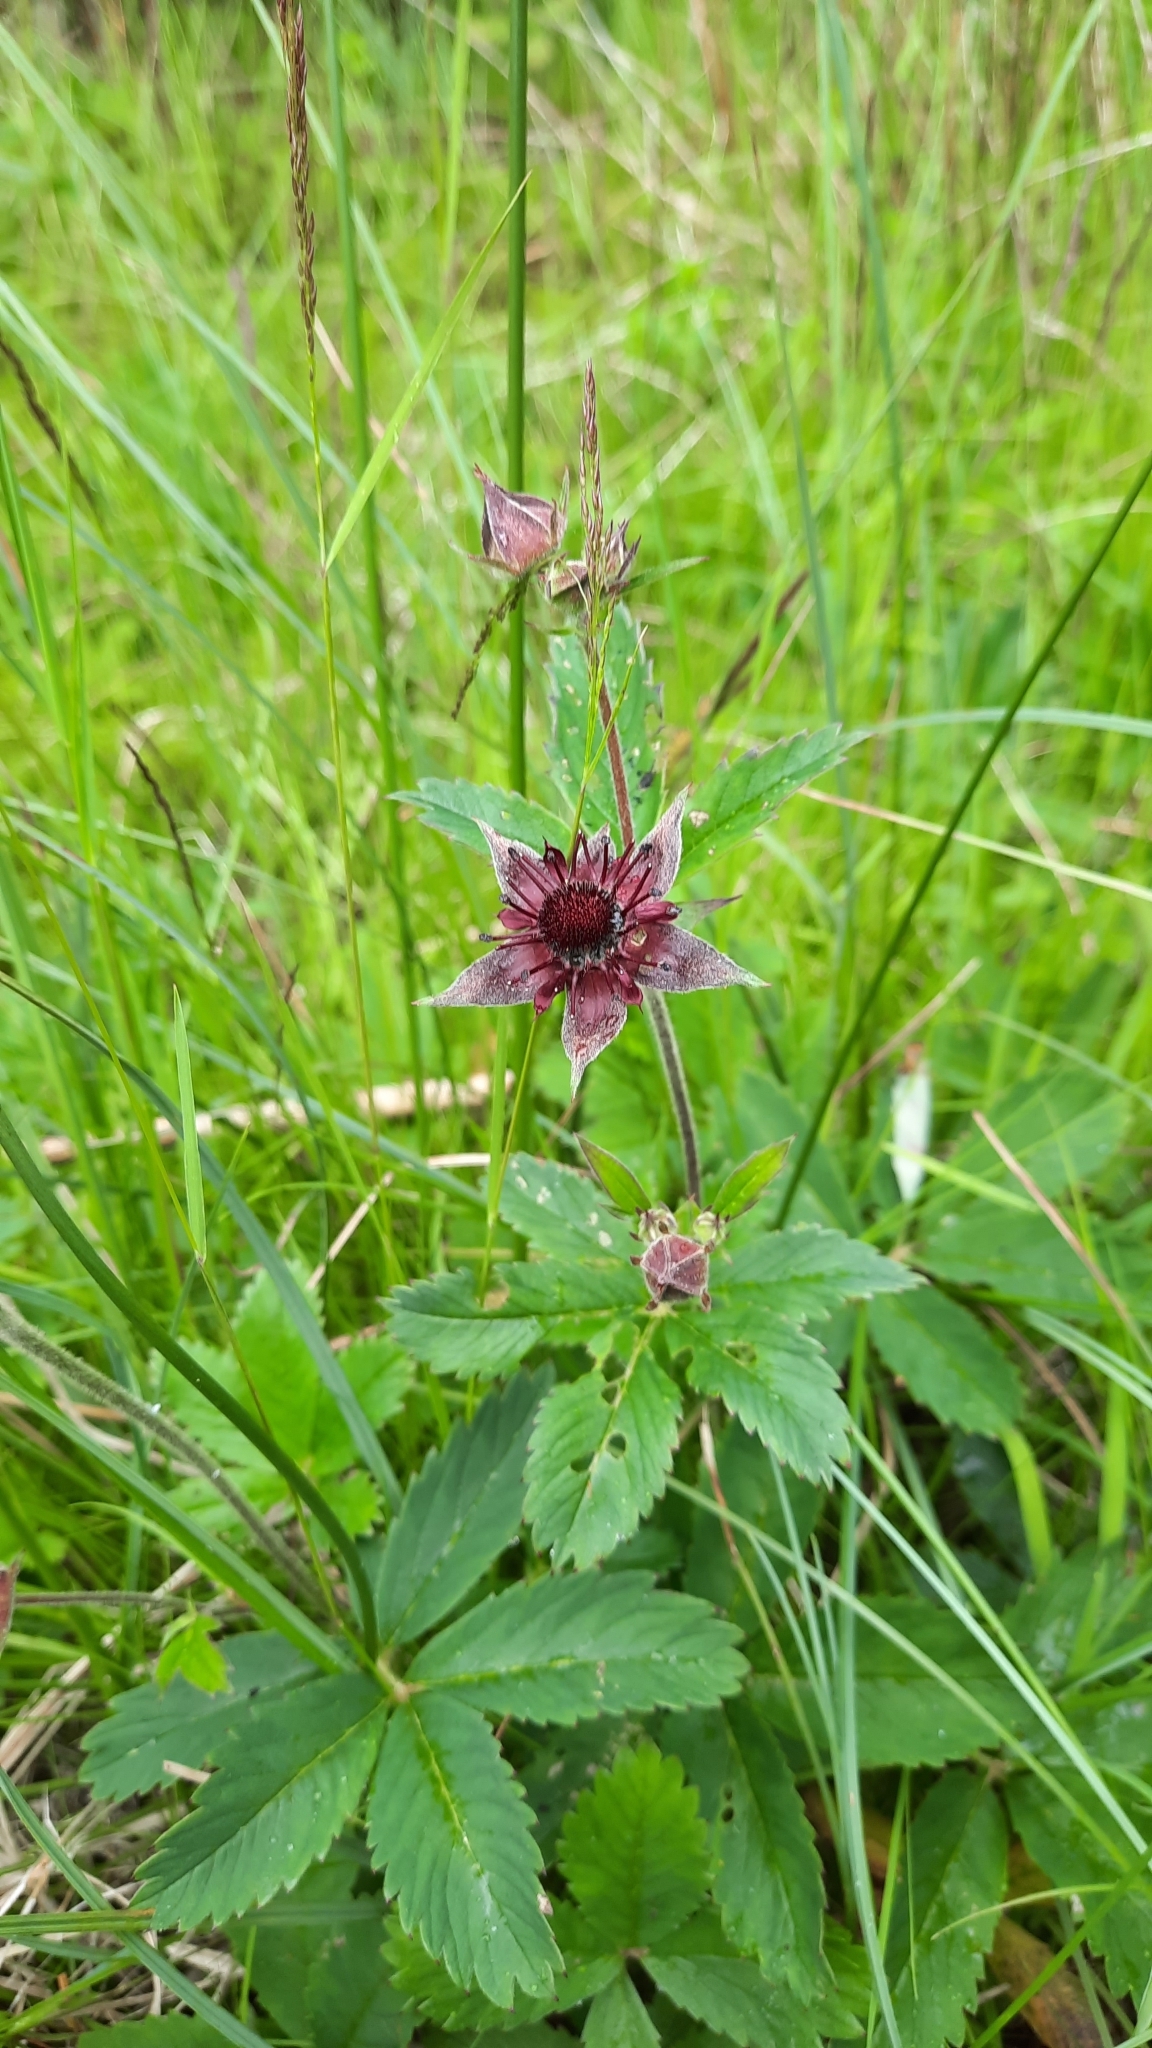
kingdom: Plantae
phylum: Tracheophyta
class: Magnoliopsida
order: Rosales
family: Rosaceae
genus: Comarum
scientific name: Comarum palustre
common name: Marsh cinquefoil
